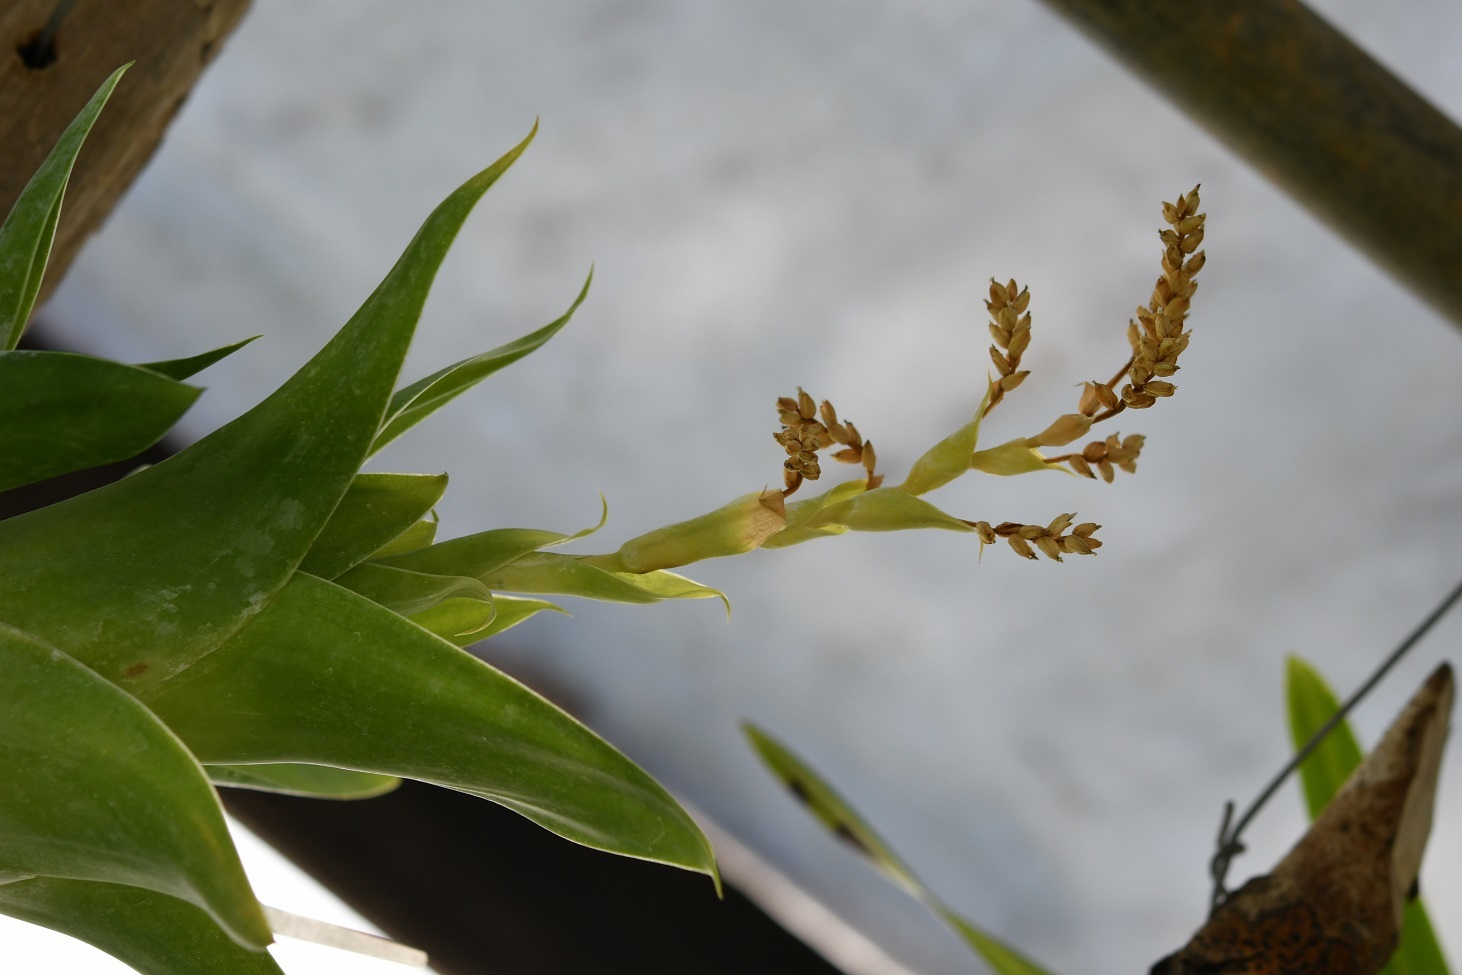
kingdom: Plantae
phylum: Tracheophyta
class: Liliopsida
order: Poales
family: Bromeliaceae
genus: Catopsis
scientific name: Catopsis oerstediana
